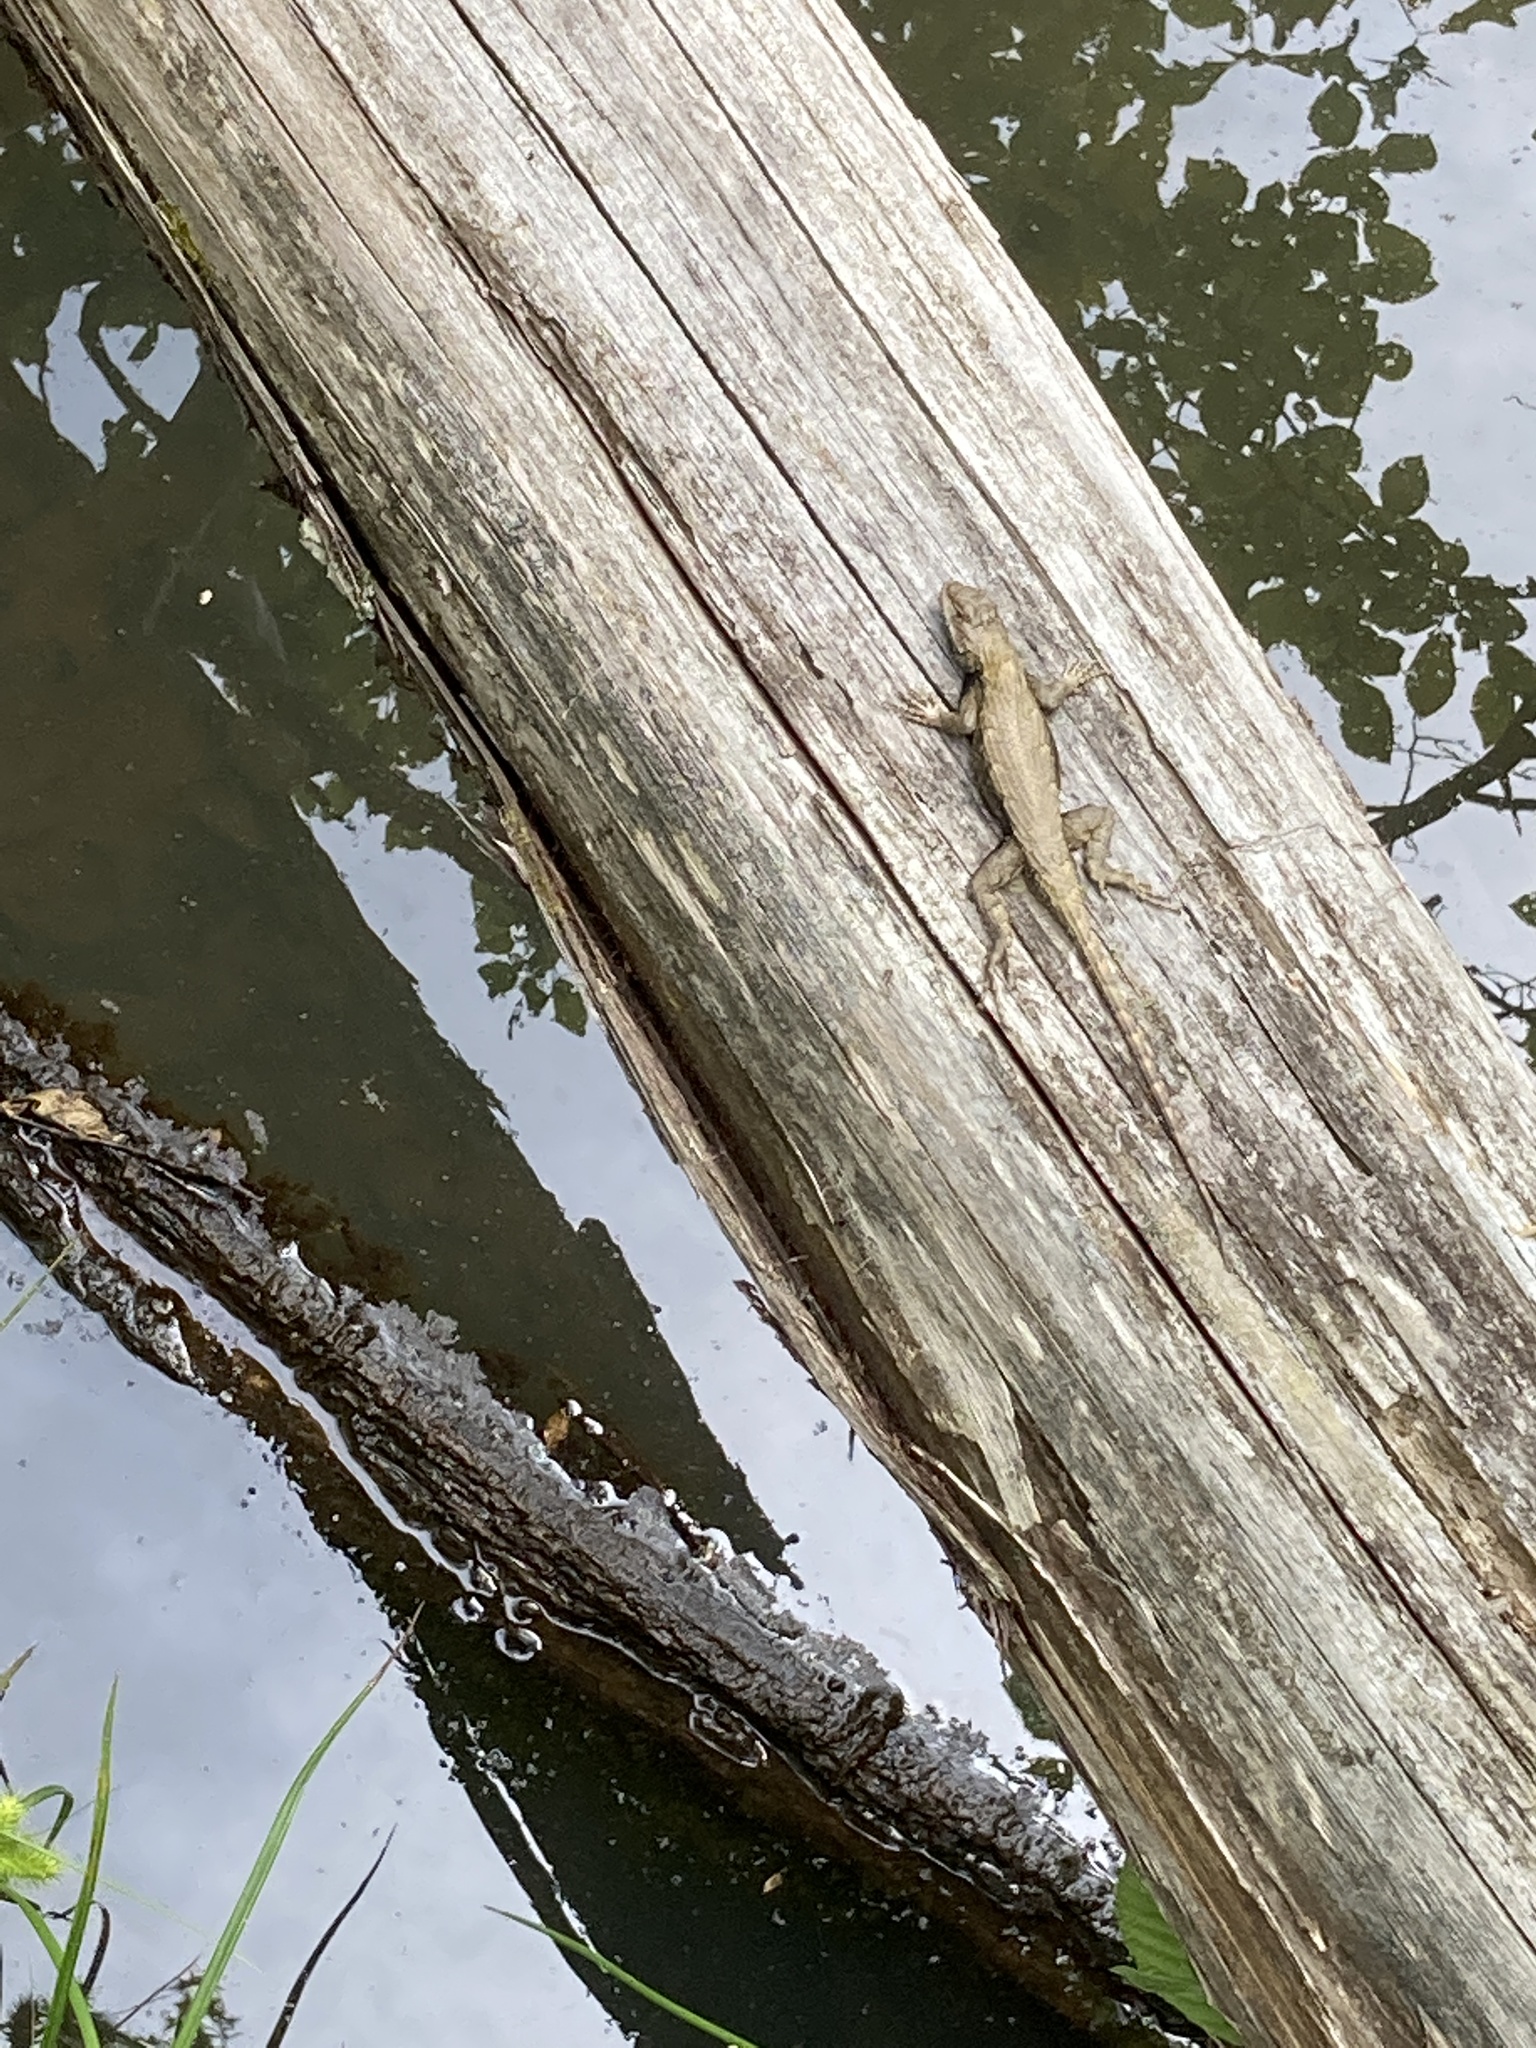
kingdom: Animalia
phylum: Chordata
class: Squamata
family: Phrynosomatidae
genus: Sceloporus
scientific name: Sceloporus undulatus
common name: Eastern fence lizard
